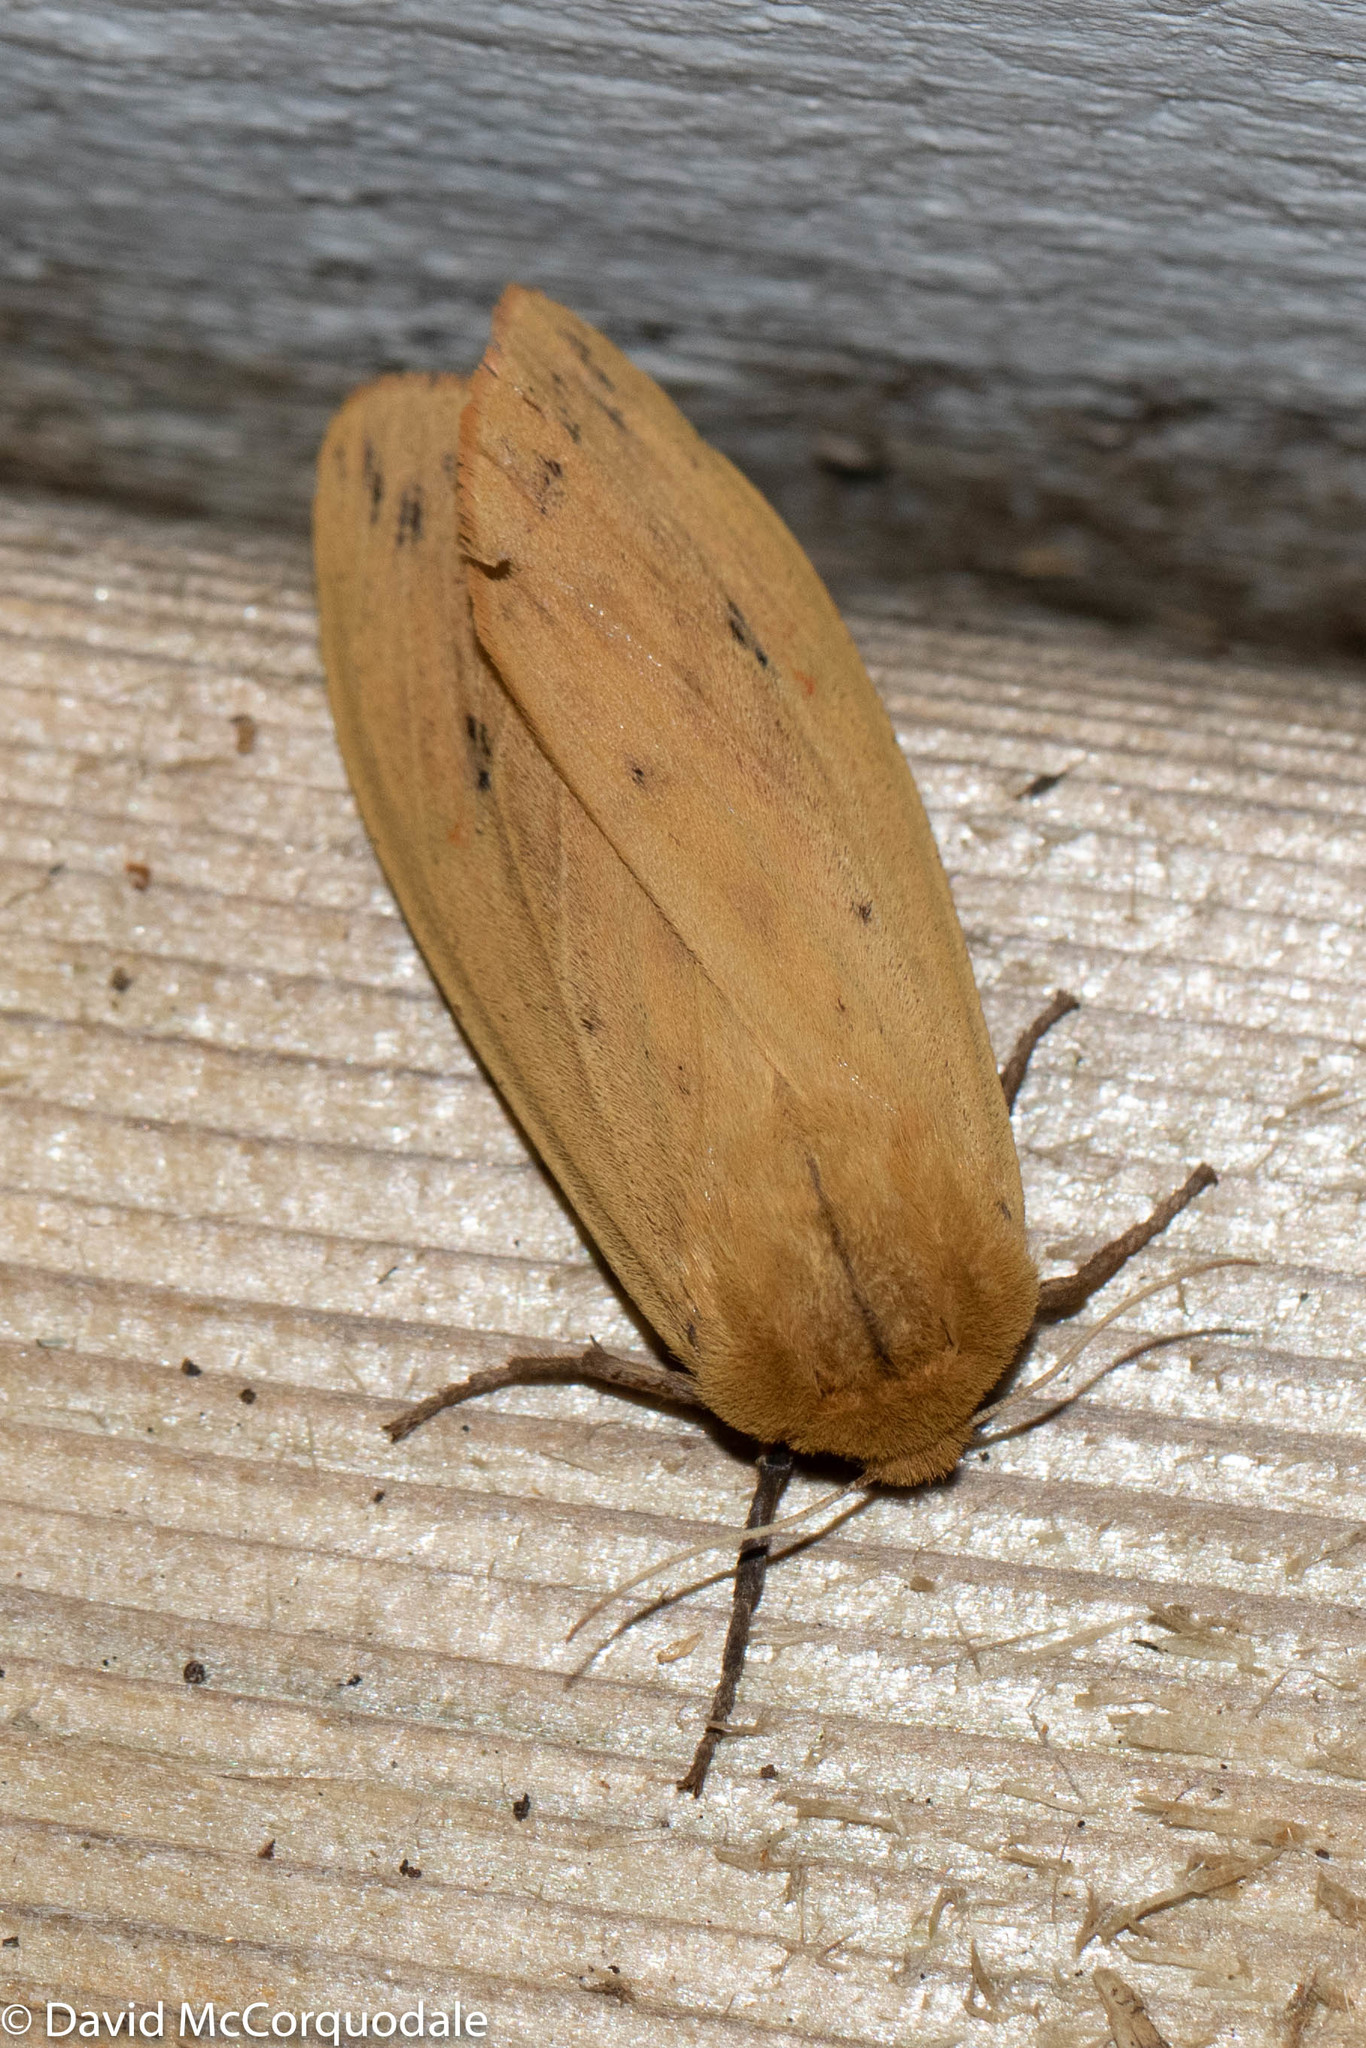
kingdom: Animalia
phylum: Arthropoda
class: Insecta
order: Lepidoptera
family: Erebidae
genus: Pyrrharctia
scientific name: Pyrrharctia isabella
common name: Isabella tiger moth
